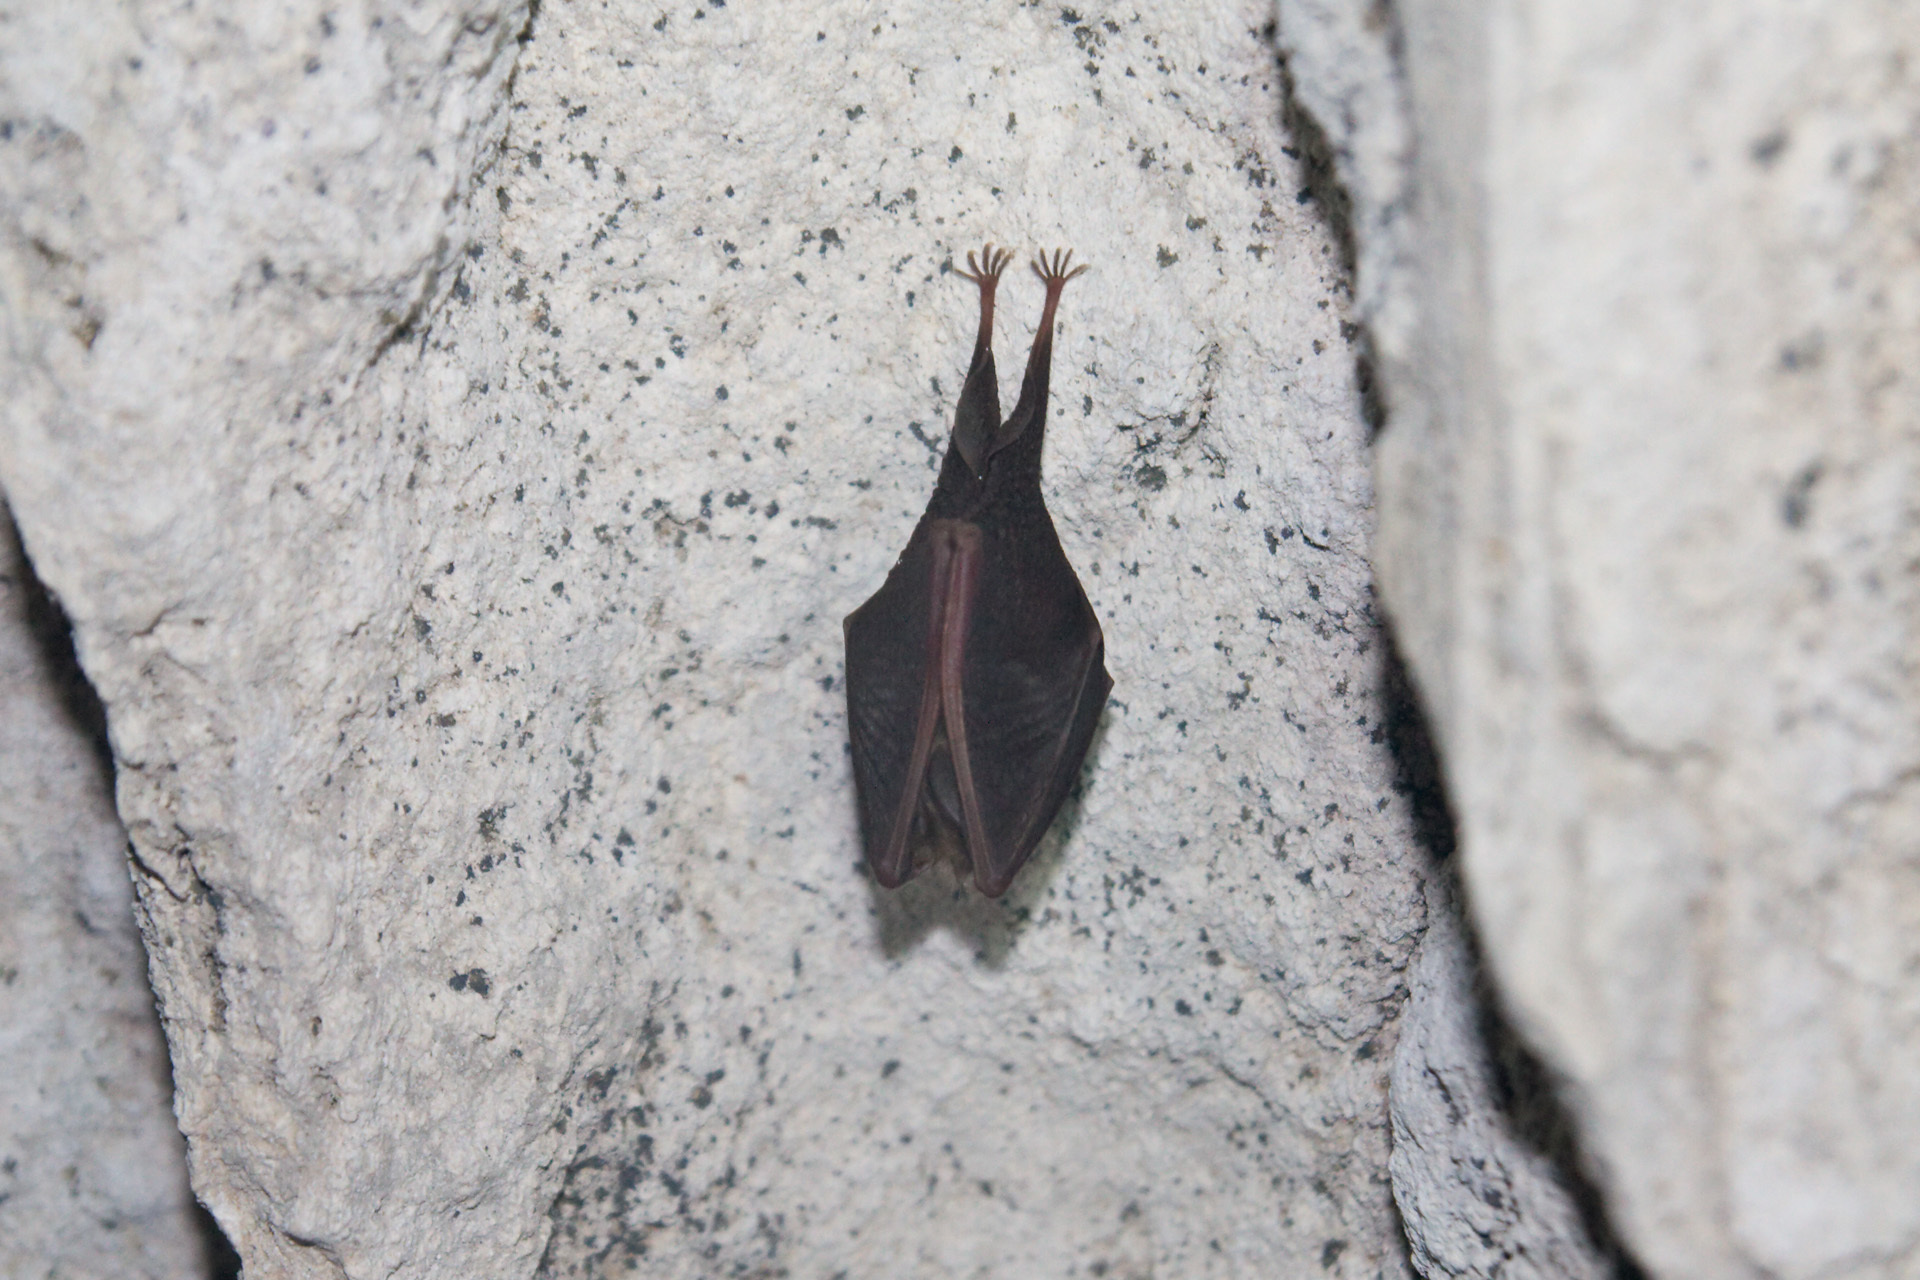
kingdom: Animalia
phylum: Chordata
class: Mammalia
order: Chiroptera
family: Rhinolophidae
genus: Rhinolophus
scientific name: Rhinolophus
